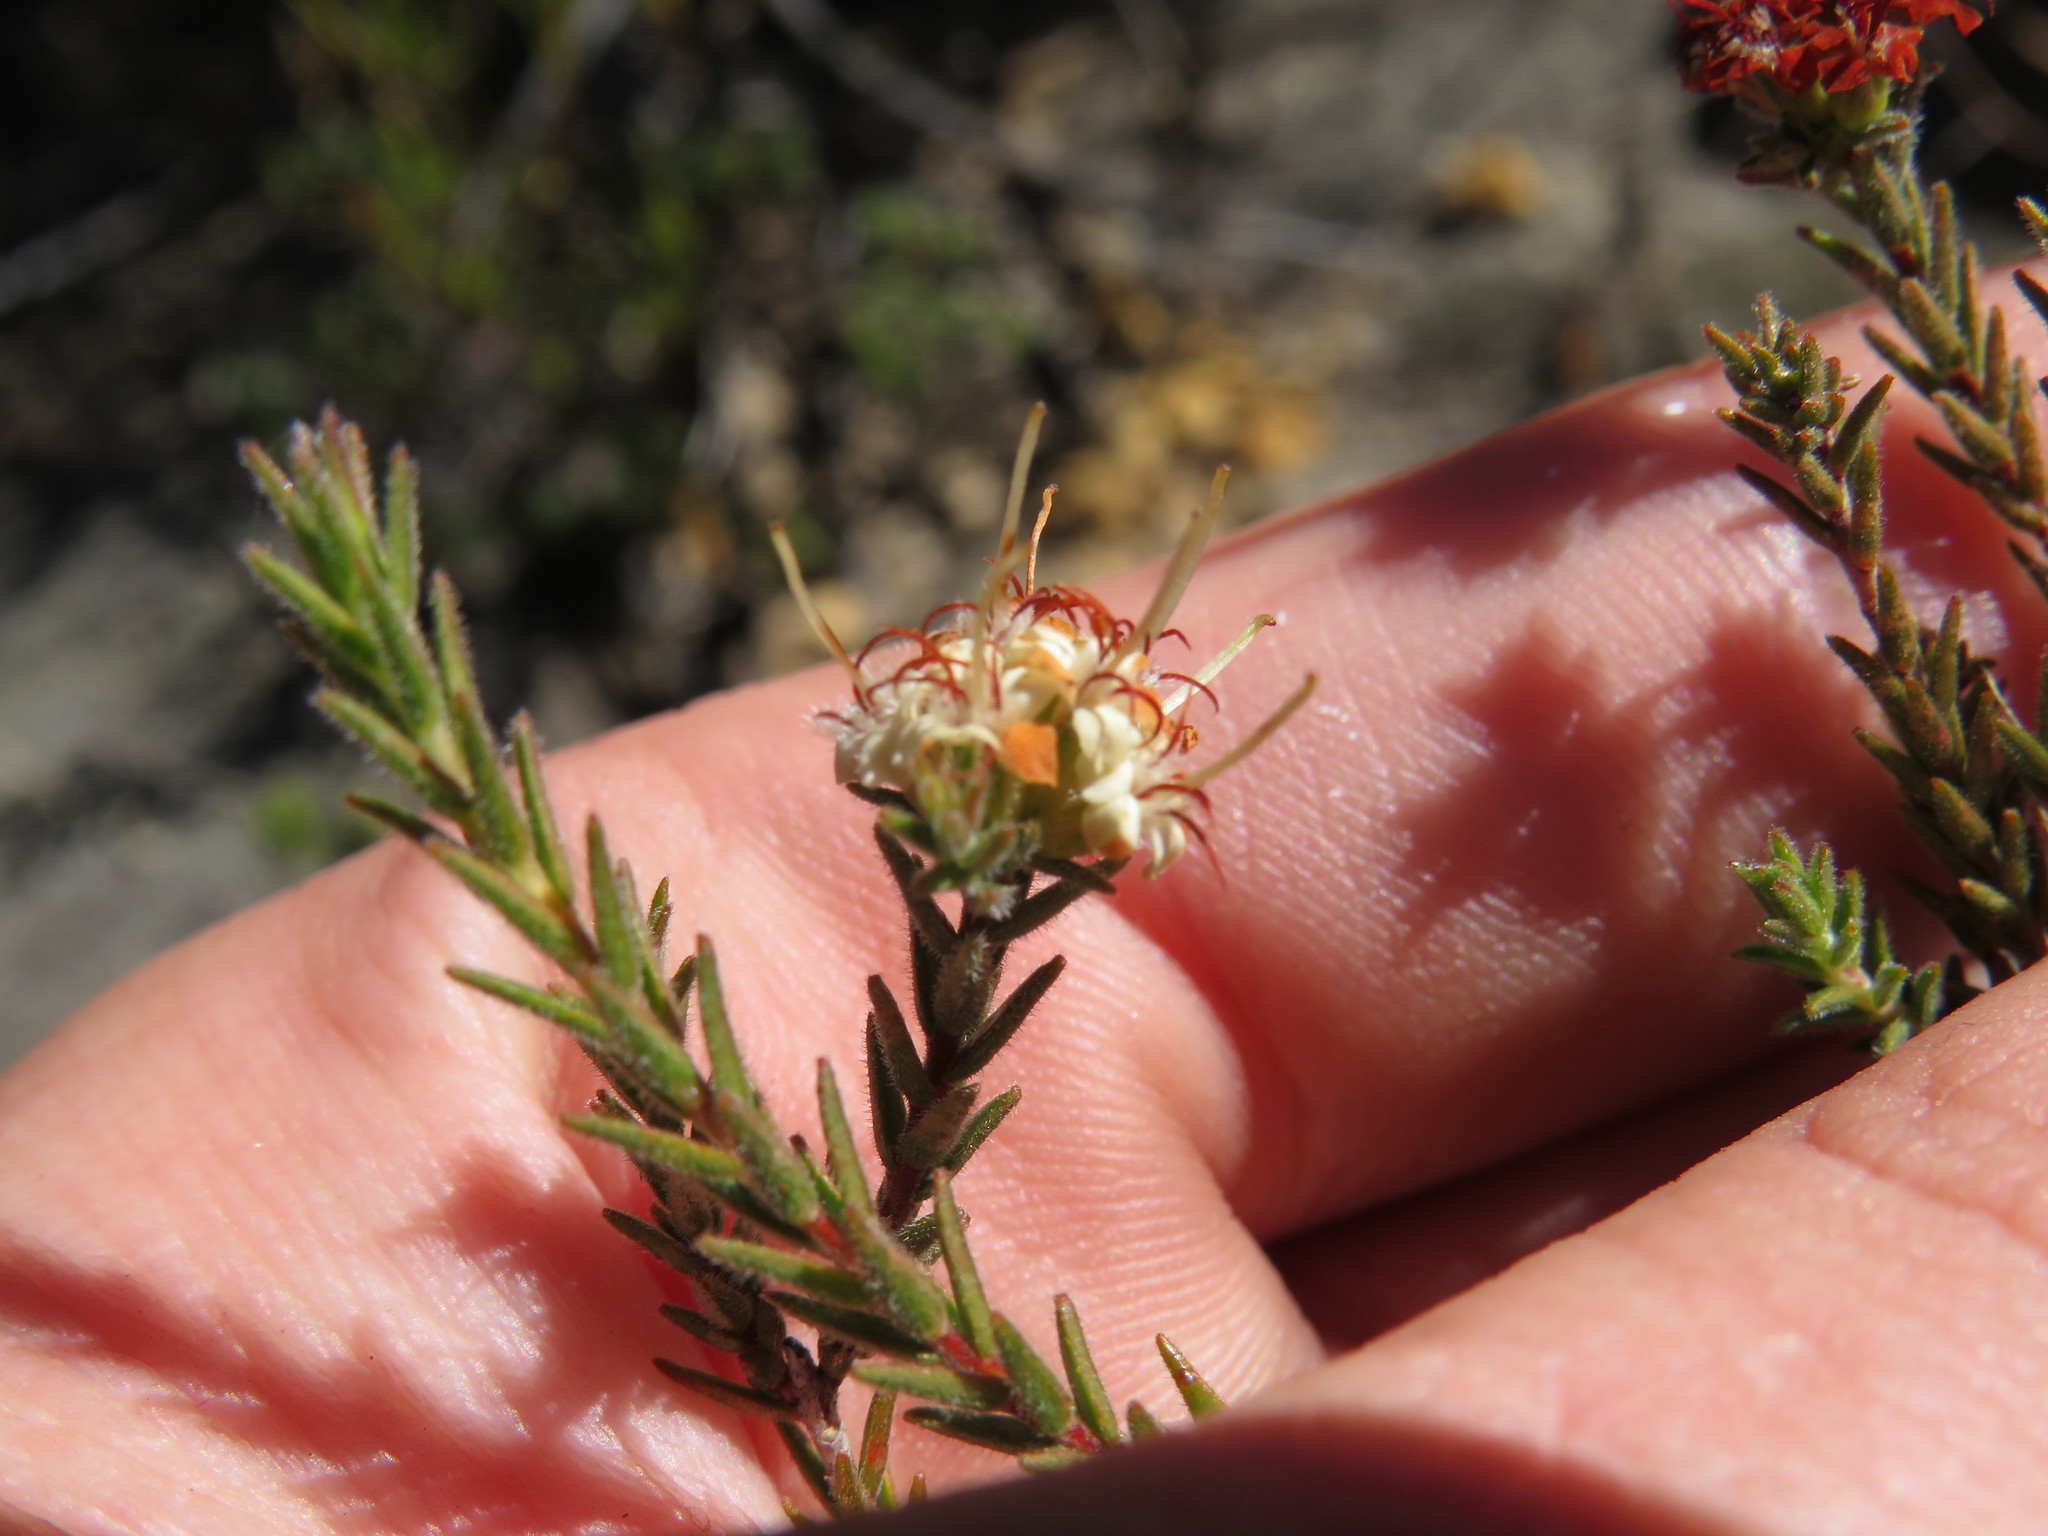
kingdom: Plantae
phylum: Tracheophyta
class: Magnoliopsida
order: Sapindales
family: Rutaceae
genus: Macrostylis
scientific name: Macrostylis ramulosa
